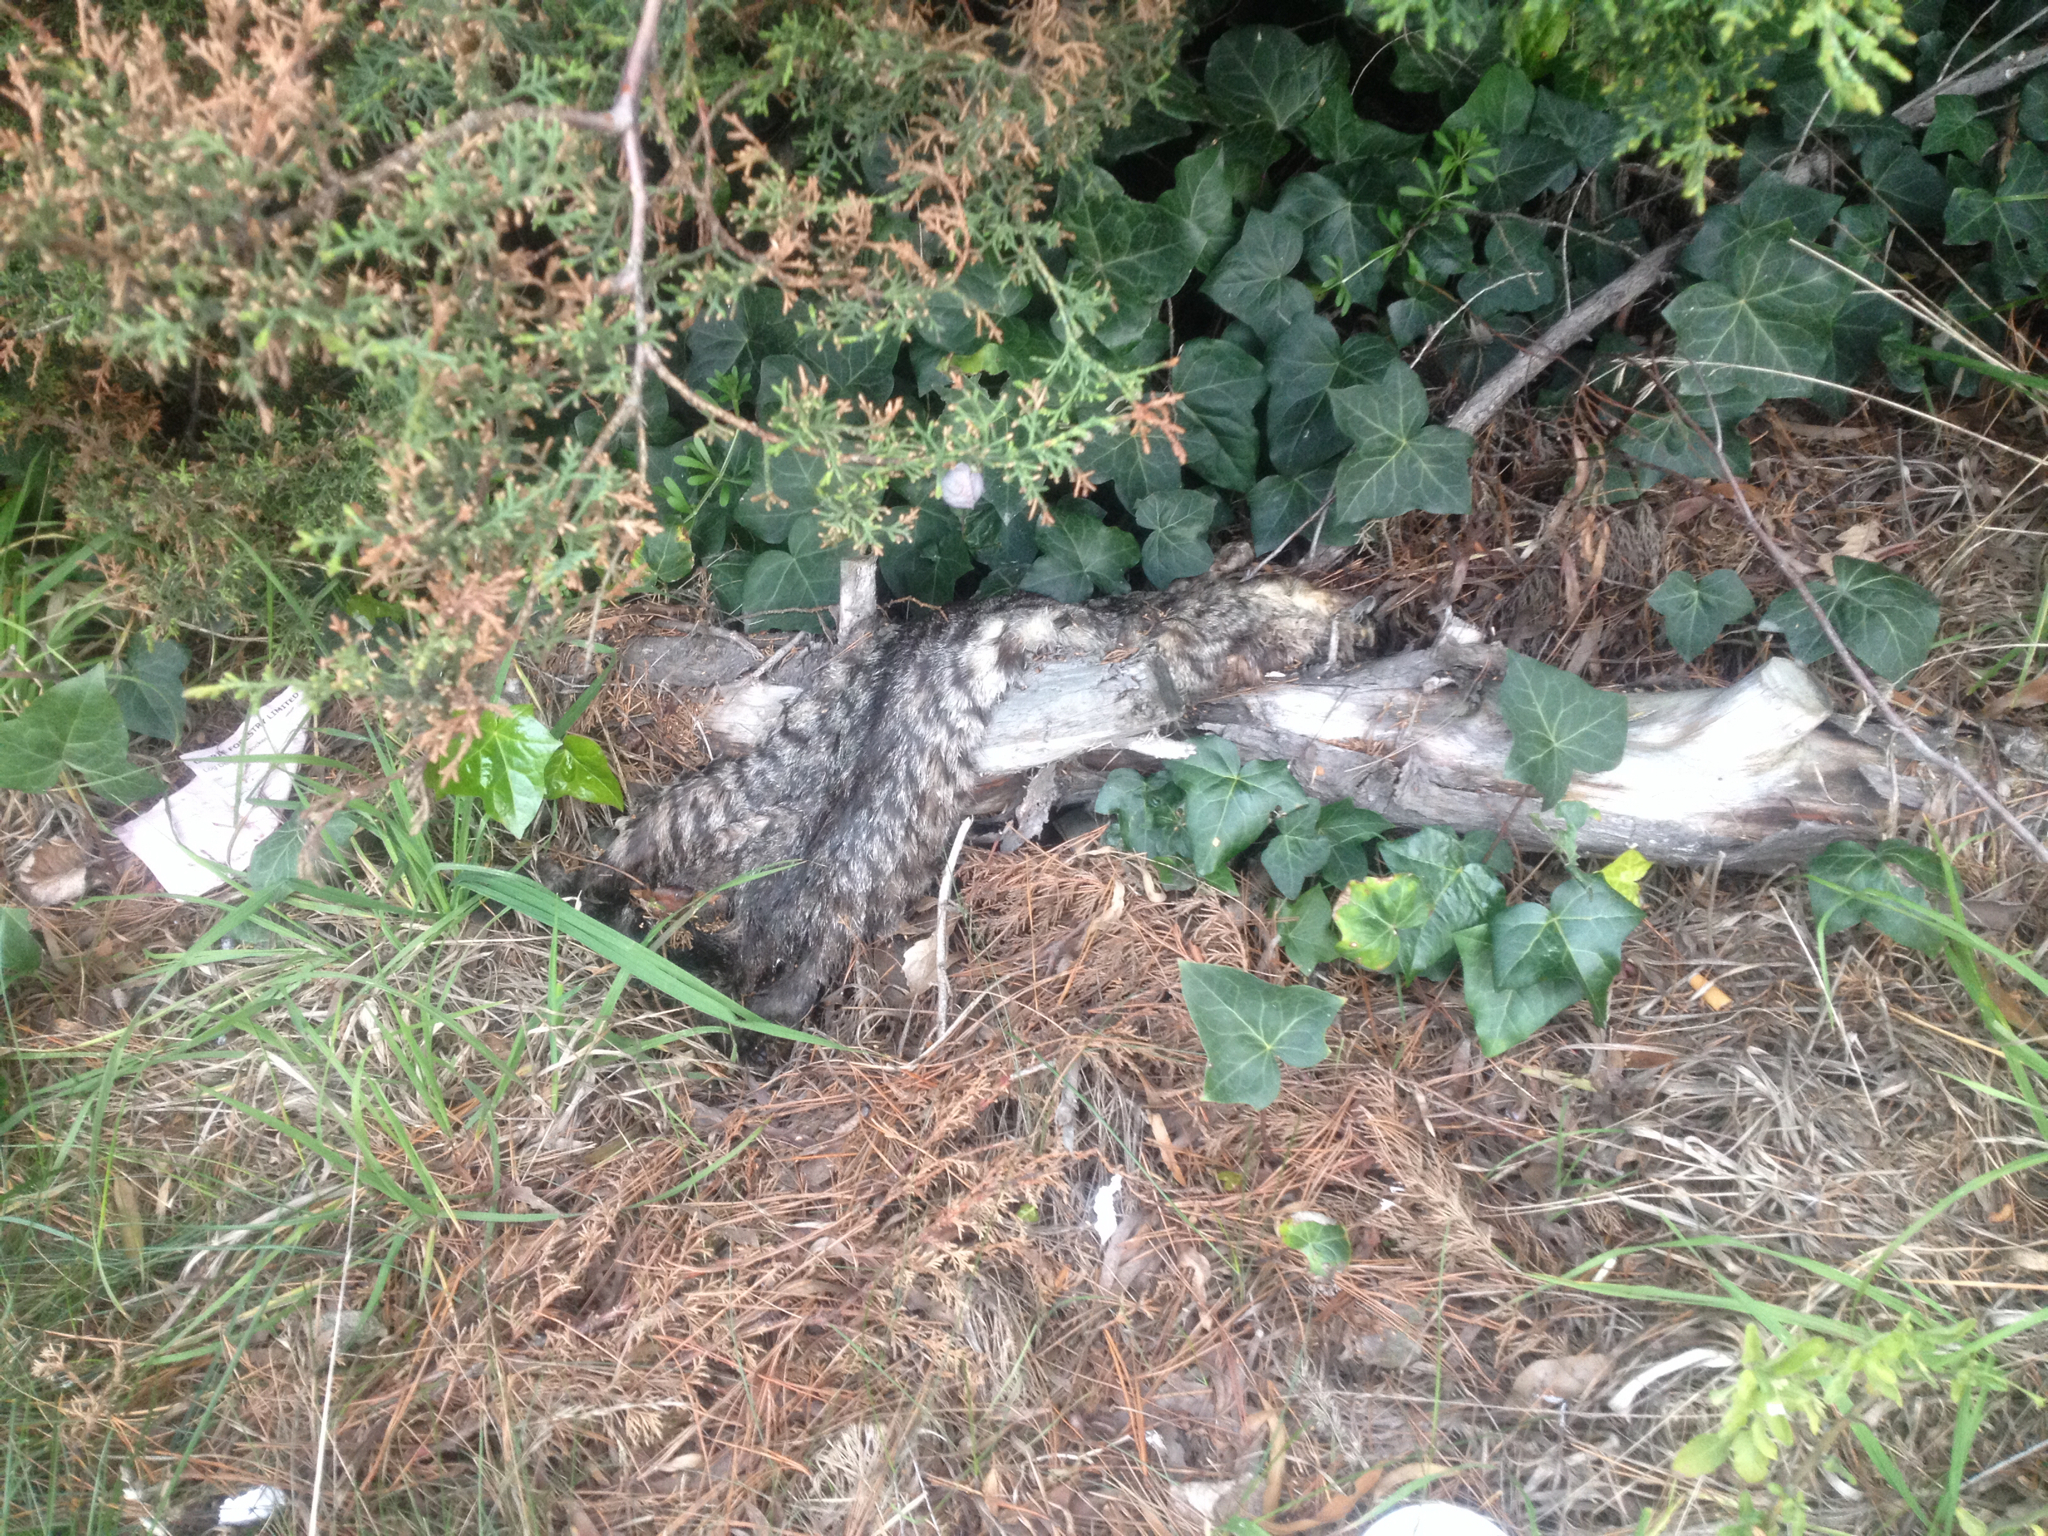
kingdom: Animalia
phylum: Chordata
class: Mammalia
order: Carnivora
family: Felidae
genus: Felis
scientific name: Felis catus
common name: Domestic cat
